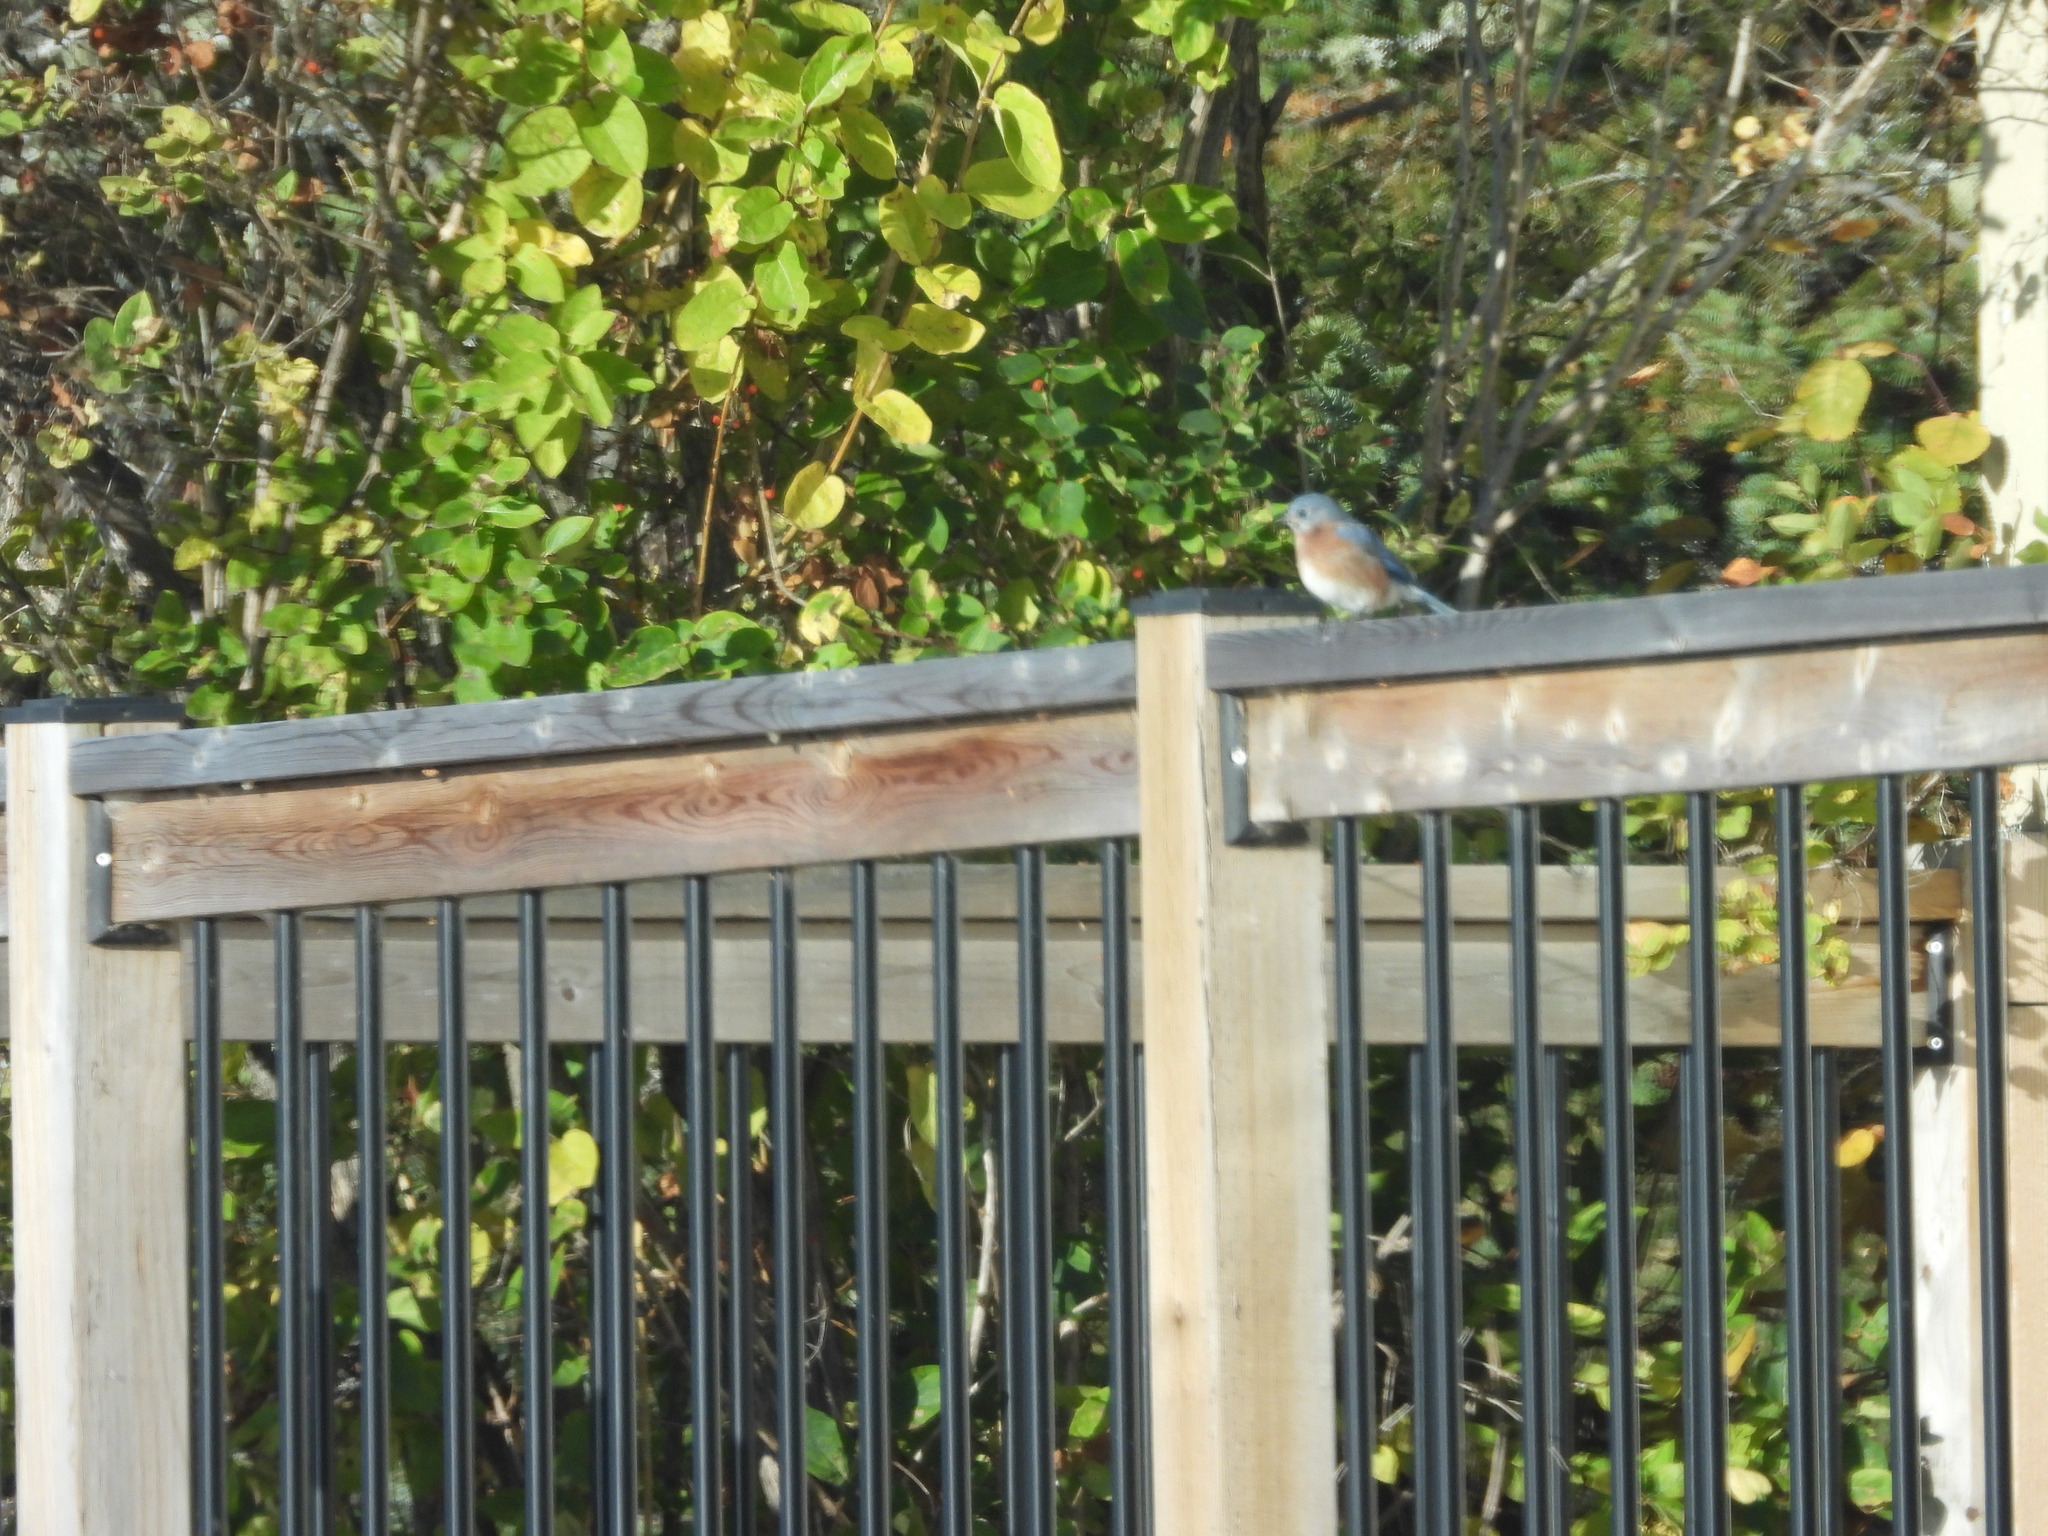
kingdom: Animalia
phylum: Chordata
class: Aves
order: Passeriformes
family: Turdidae
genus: Sialia
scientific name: Sialia sialis
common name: Eastern bluebird
